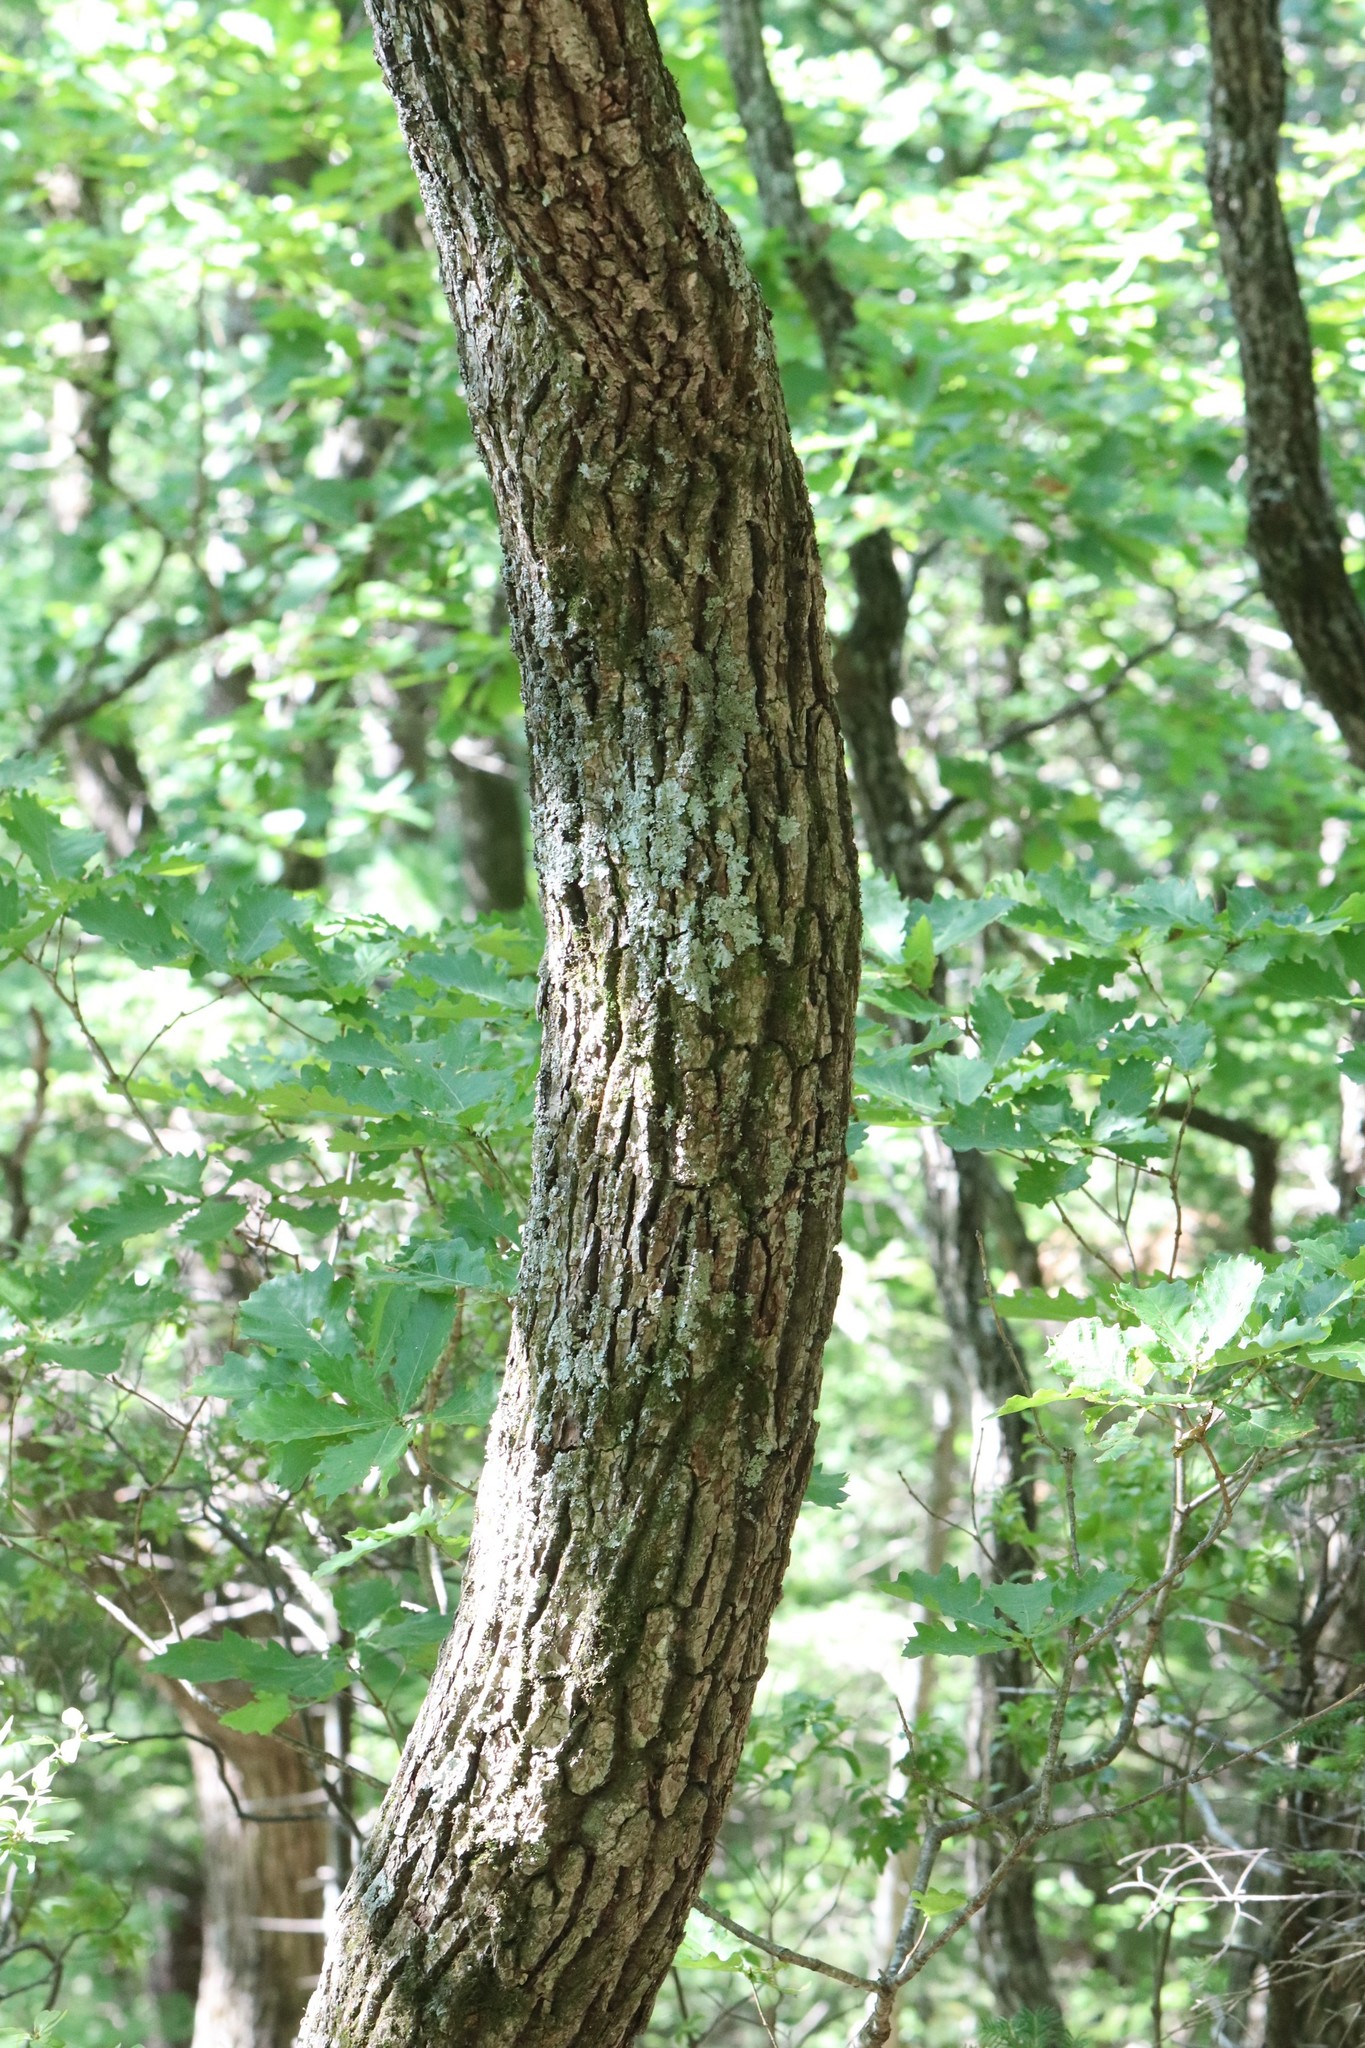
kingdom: Plantae
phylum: Tracheophyta
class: Magnoliopsida
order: Fagales
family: Fagaceae
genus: Quercus
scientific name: Quercus mongolica
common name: Mongolian oak
